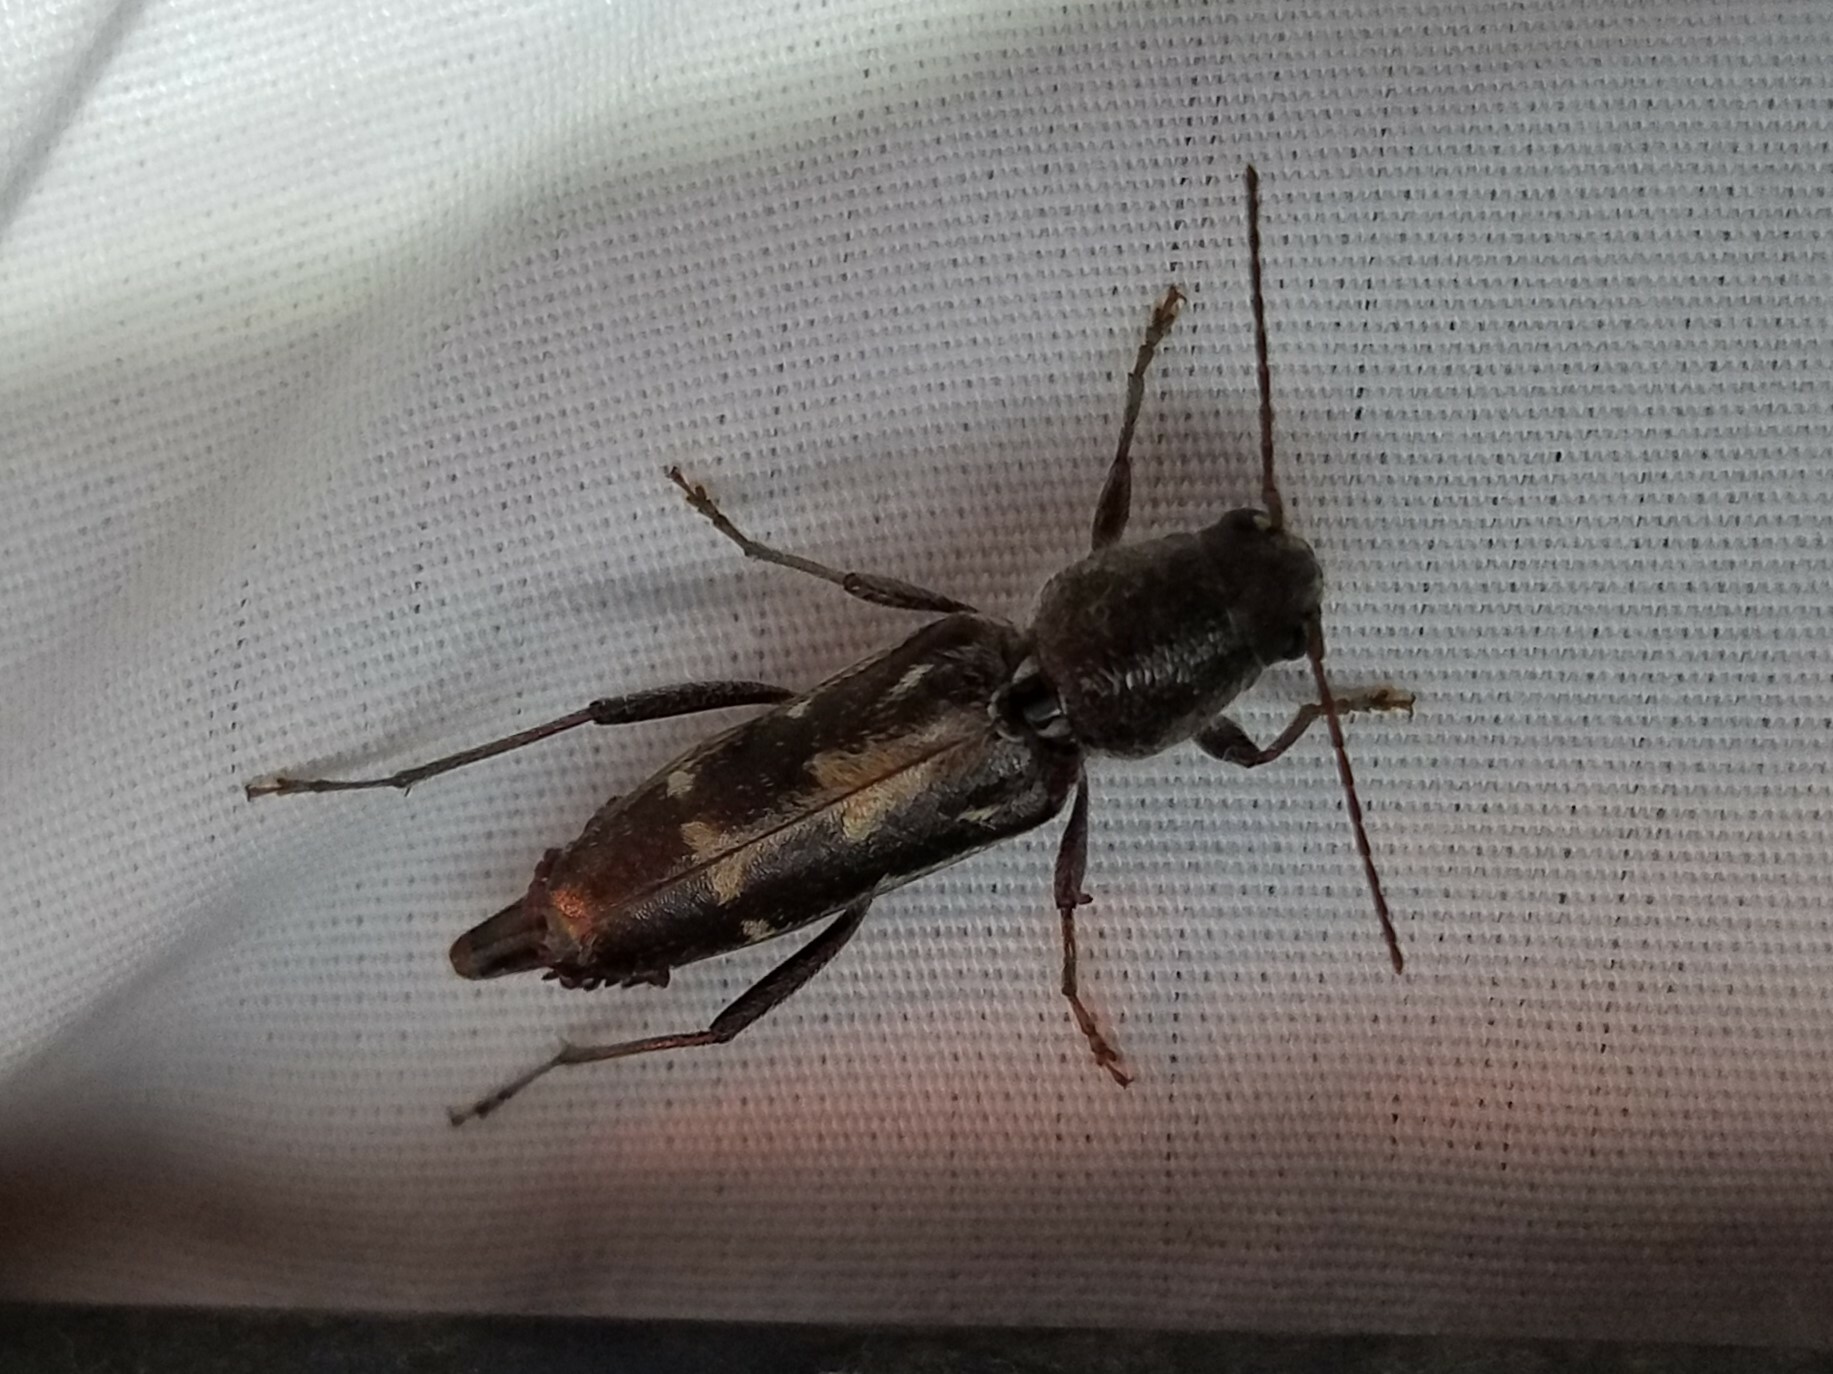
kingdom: Animalia
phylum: Arthropoda
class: Insecta
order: Coleoptera
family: Cerambycidae
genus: Xylotrechus
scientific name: Xylotrechus sagittatus
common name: Arrowhead borer
